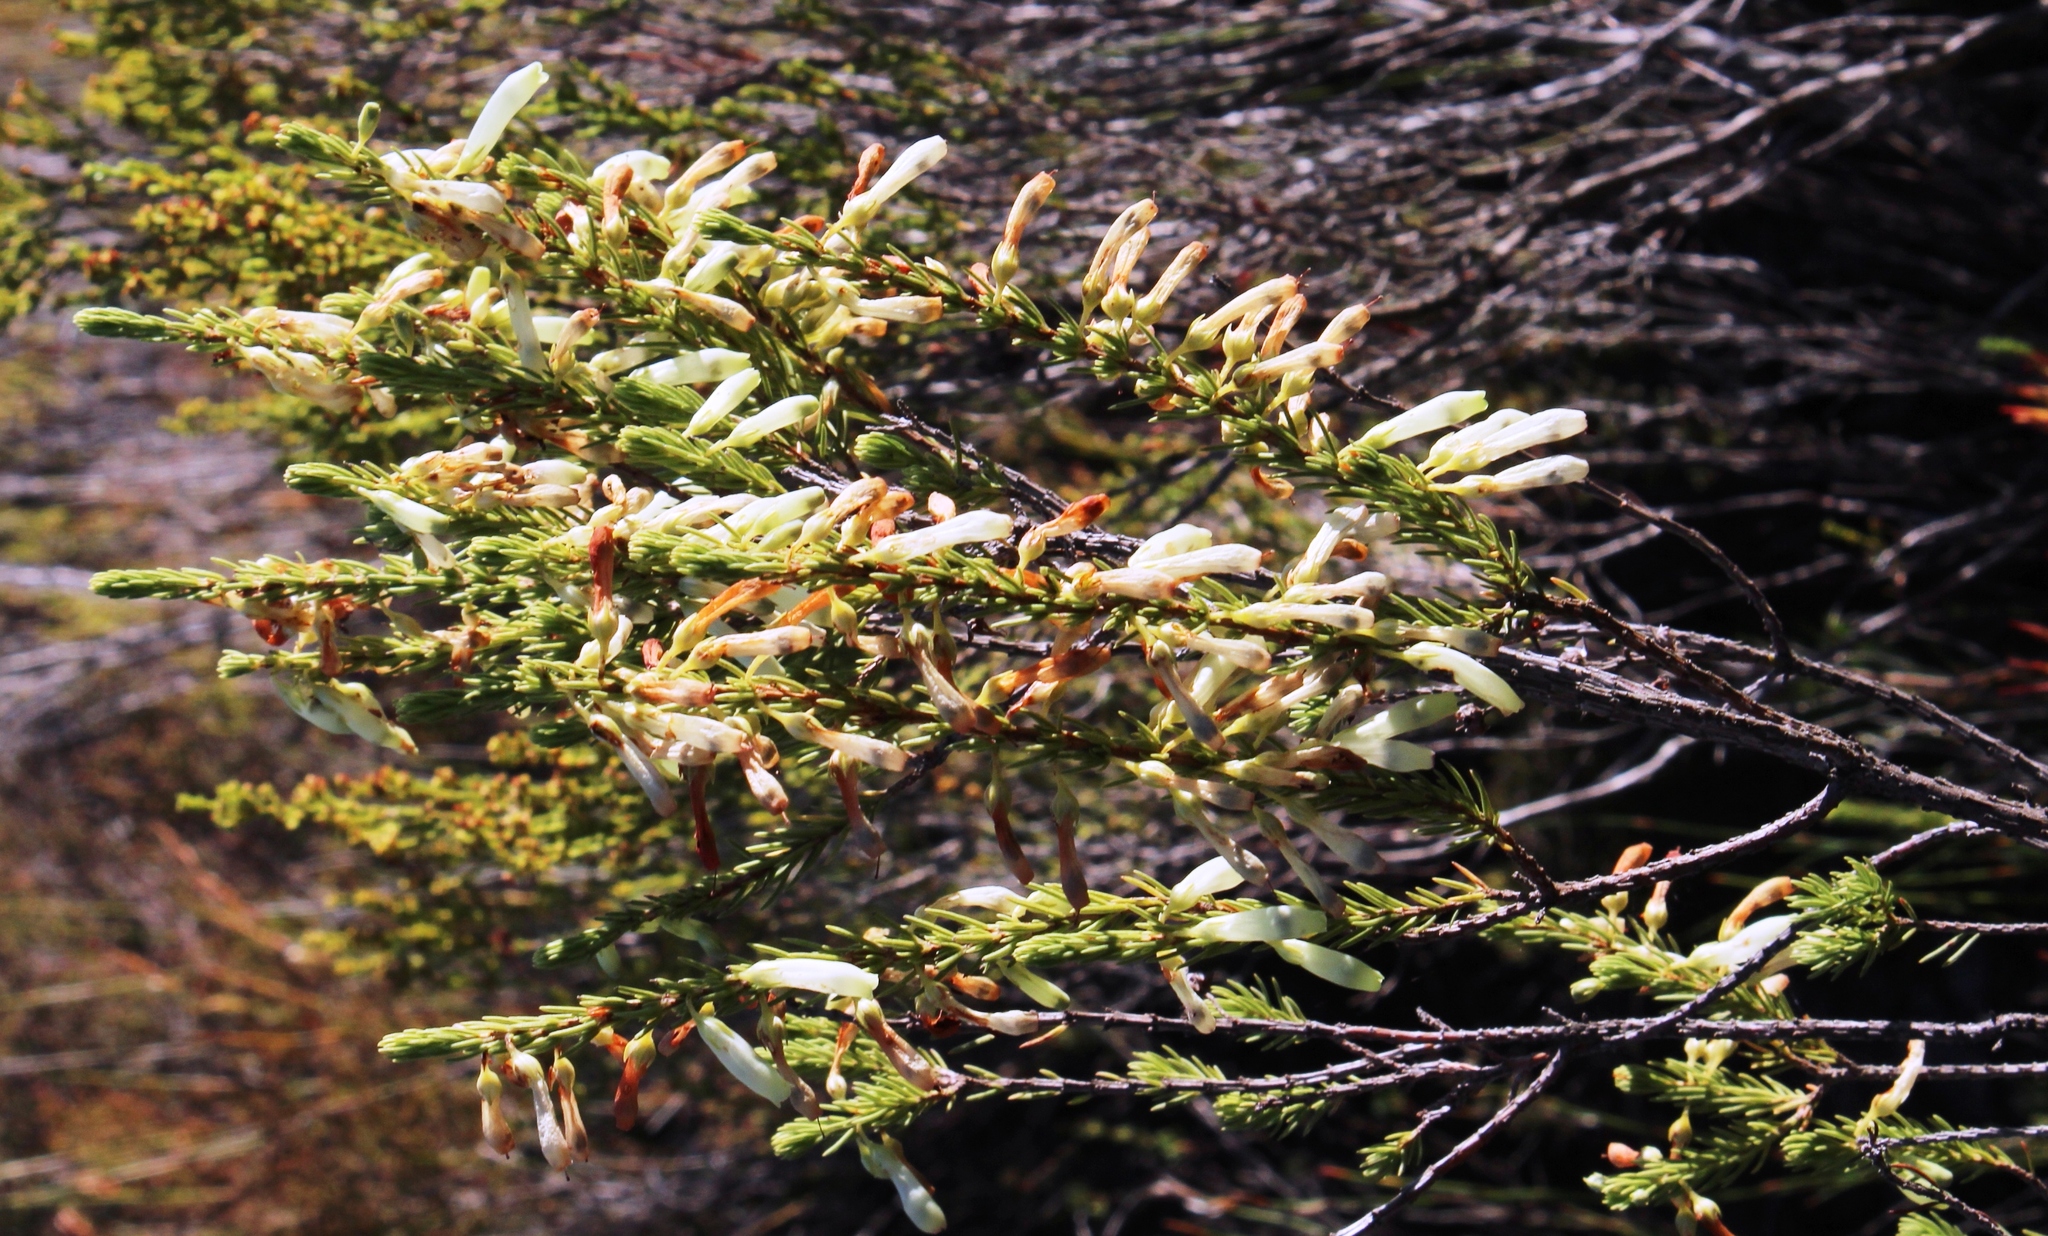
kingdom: Plantae
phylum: Tracheophyta
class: Magnoliopsida
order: Ericales
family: Ericaceae
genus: Erica
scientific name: Erica mammosa
